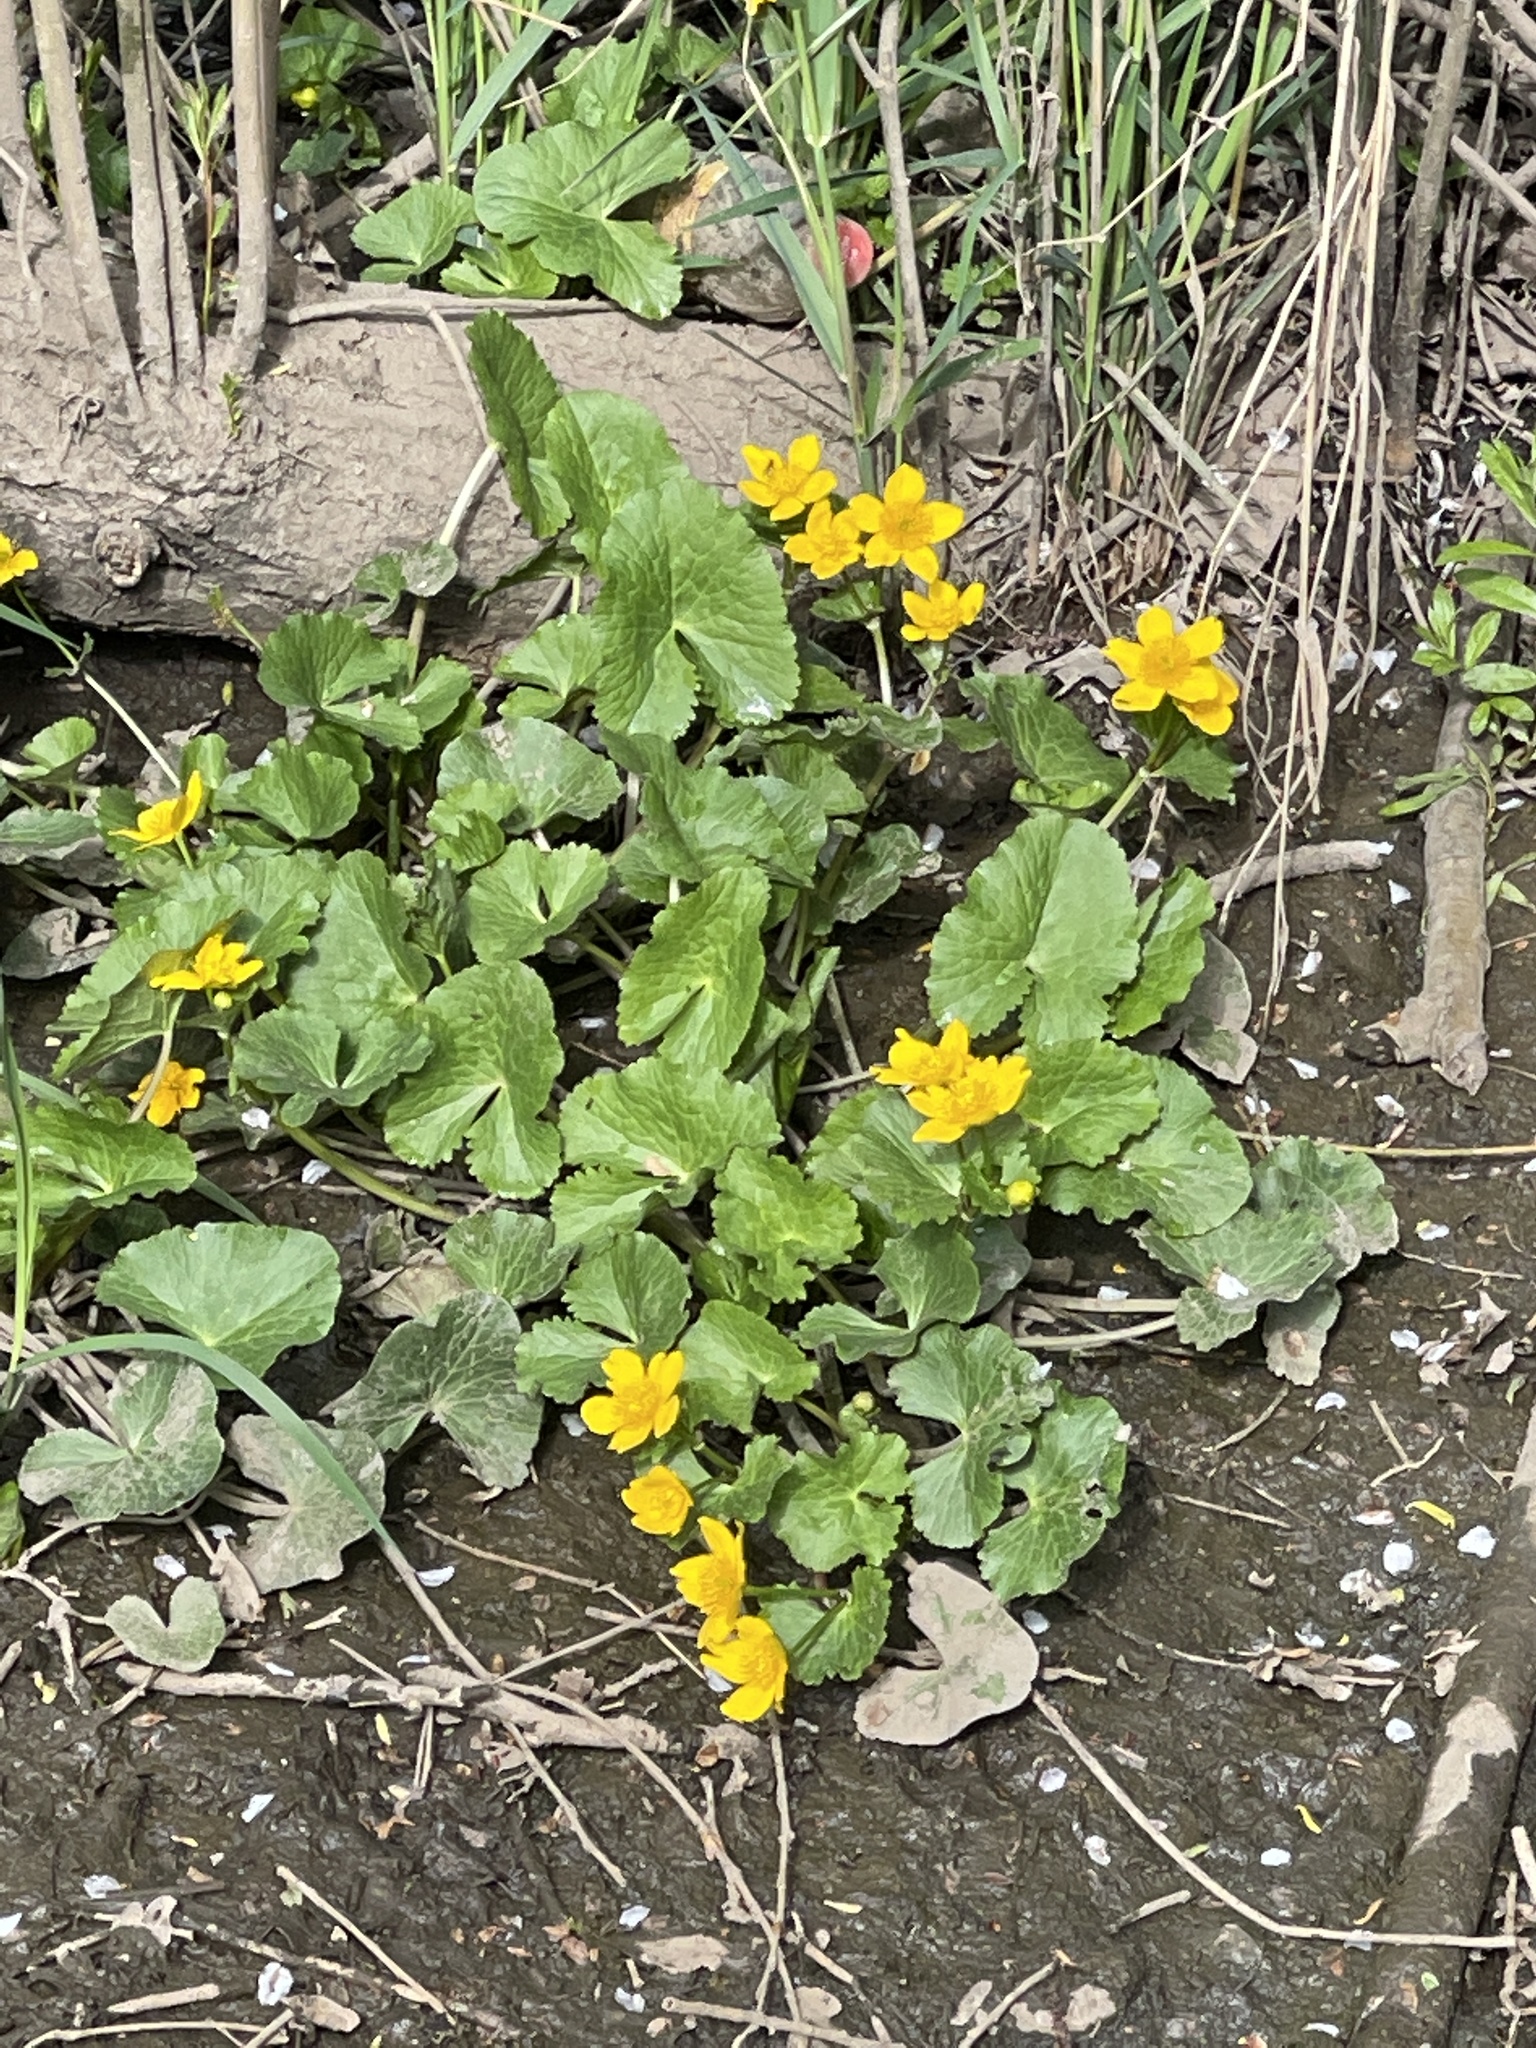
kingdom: Plantae
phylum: Tracheophyta
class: Magnoliopsida
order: Ranunculales
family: Ranunculaceae
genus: Caltha
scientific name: Caltha palustris
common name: Marsh marigold
